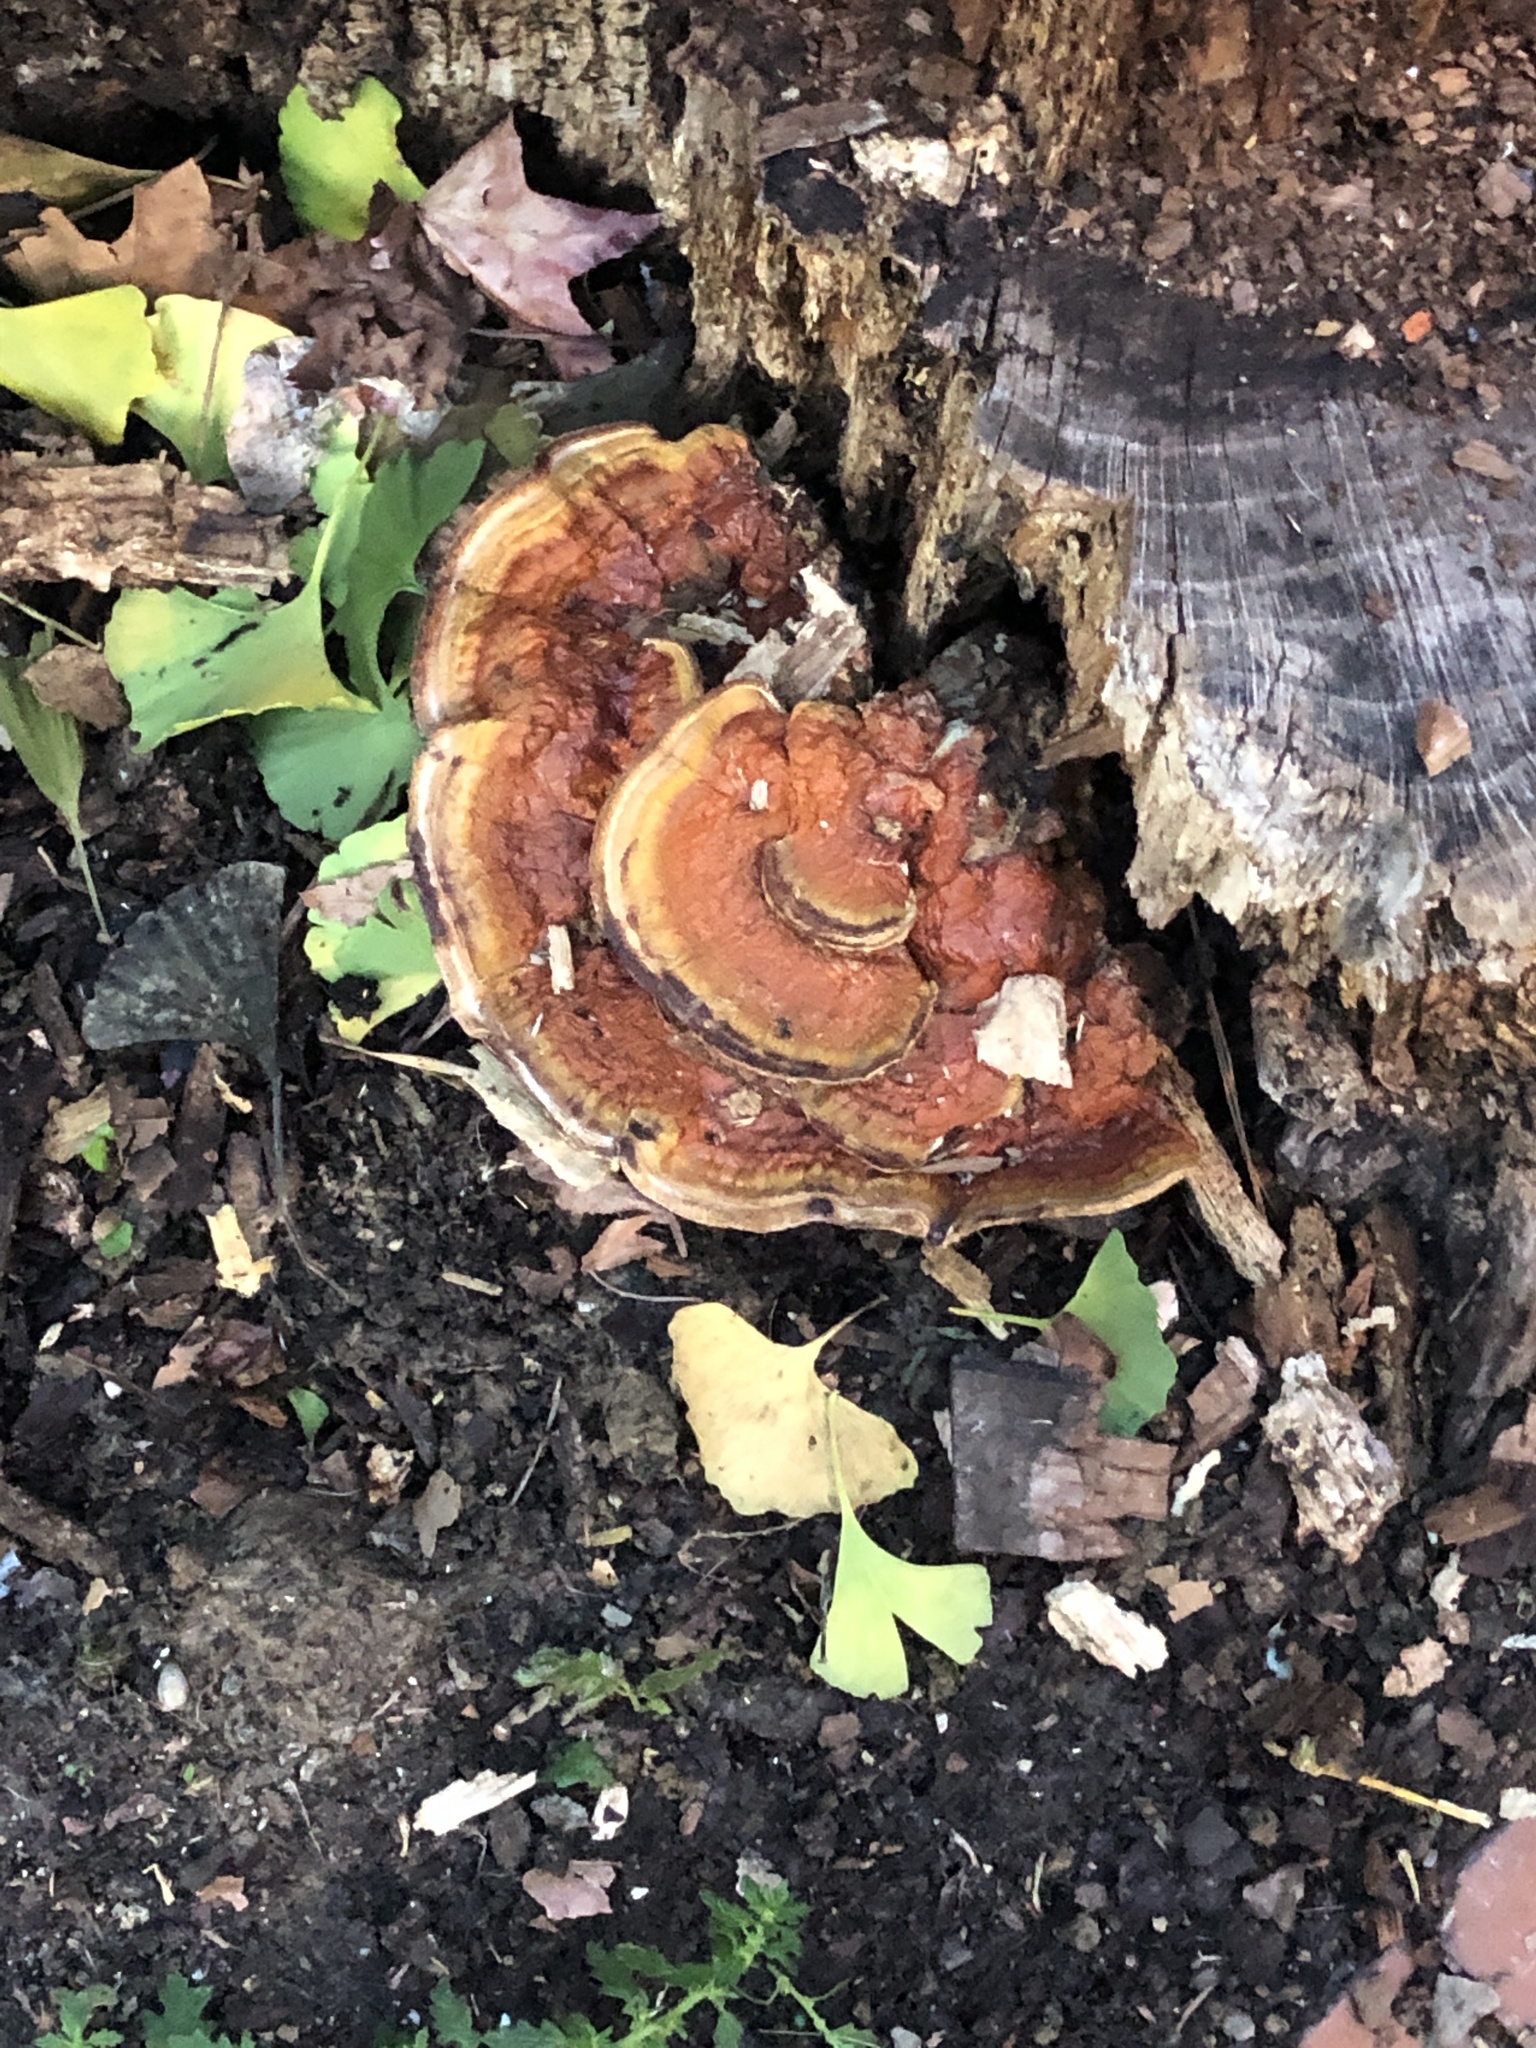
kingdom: Fungi
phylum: Basidiomycota
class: Agaricomycetes
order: Polyporales
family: Polyporaceae
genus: Ganoderma
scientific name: Ganoderma resinaceum
